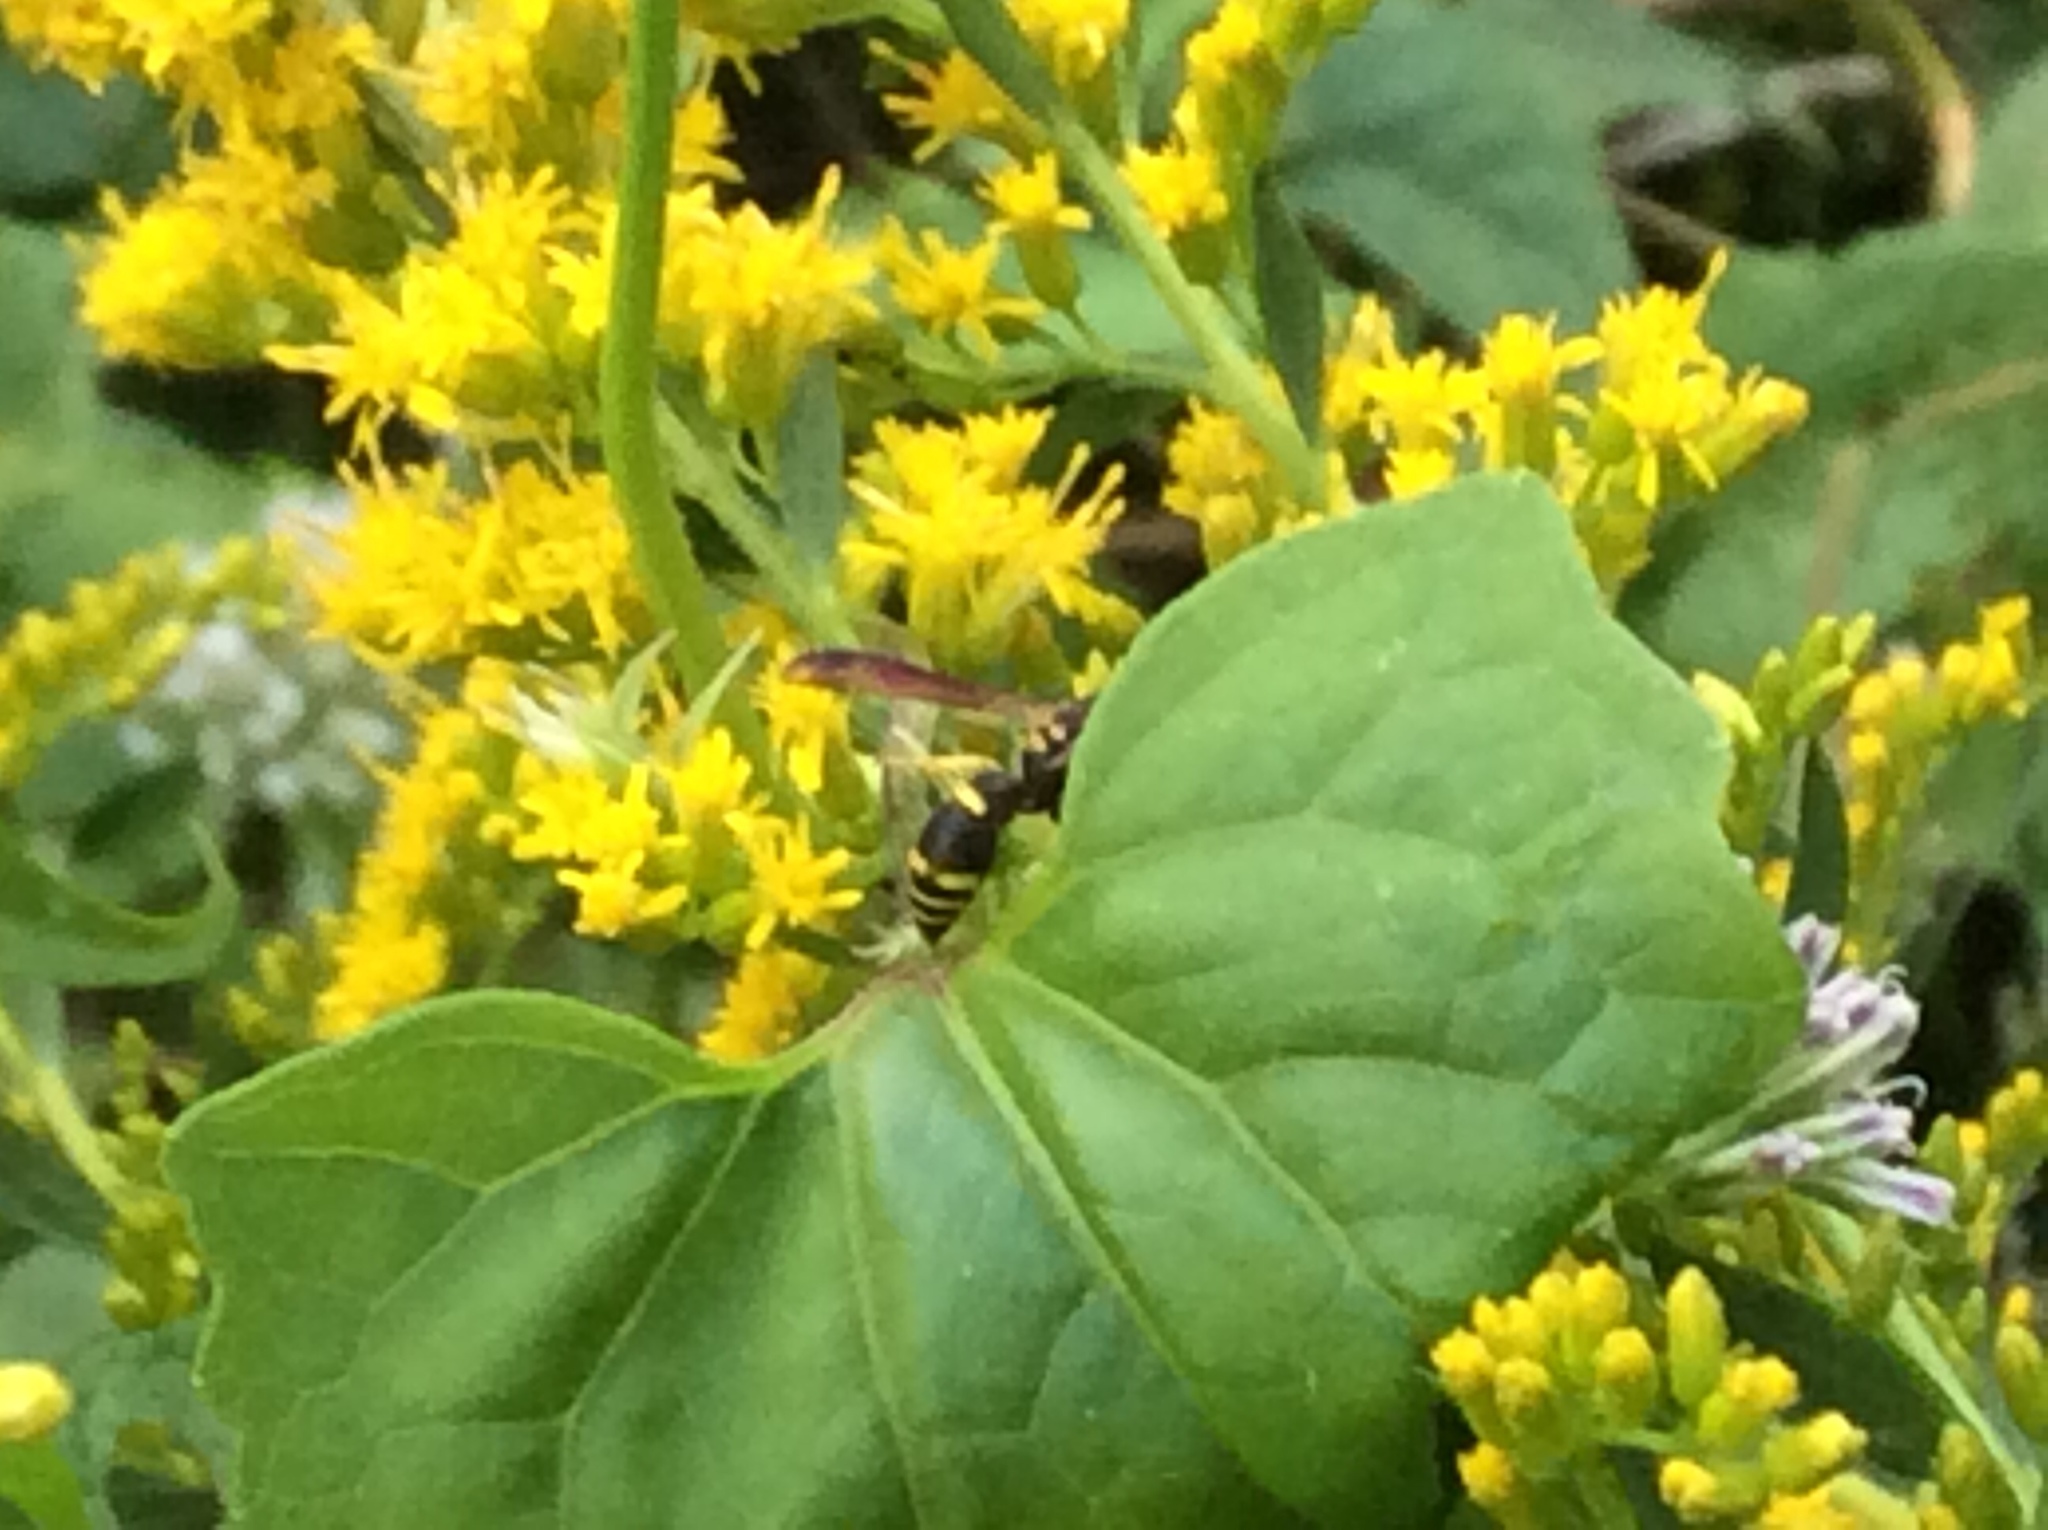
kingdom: Animalia
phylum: Arthropoda
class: Insecta
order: Hymenoptera
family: Vespidae
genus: Ancistrocerus
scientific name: Ancistrocerus adiabatus
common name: Bramble mason wasp
